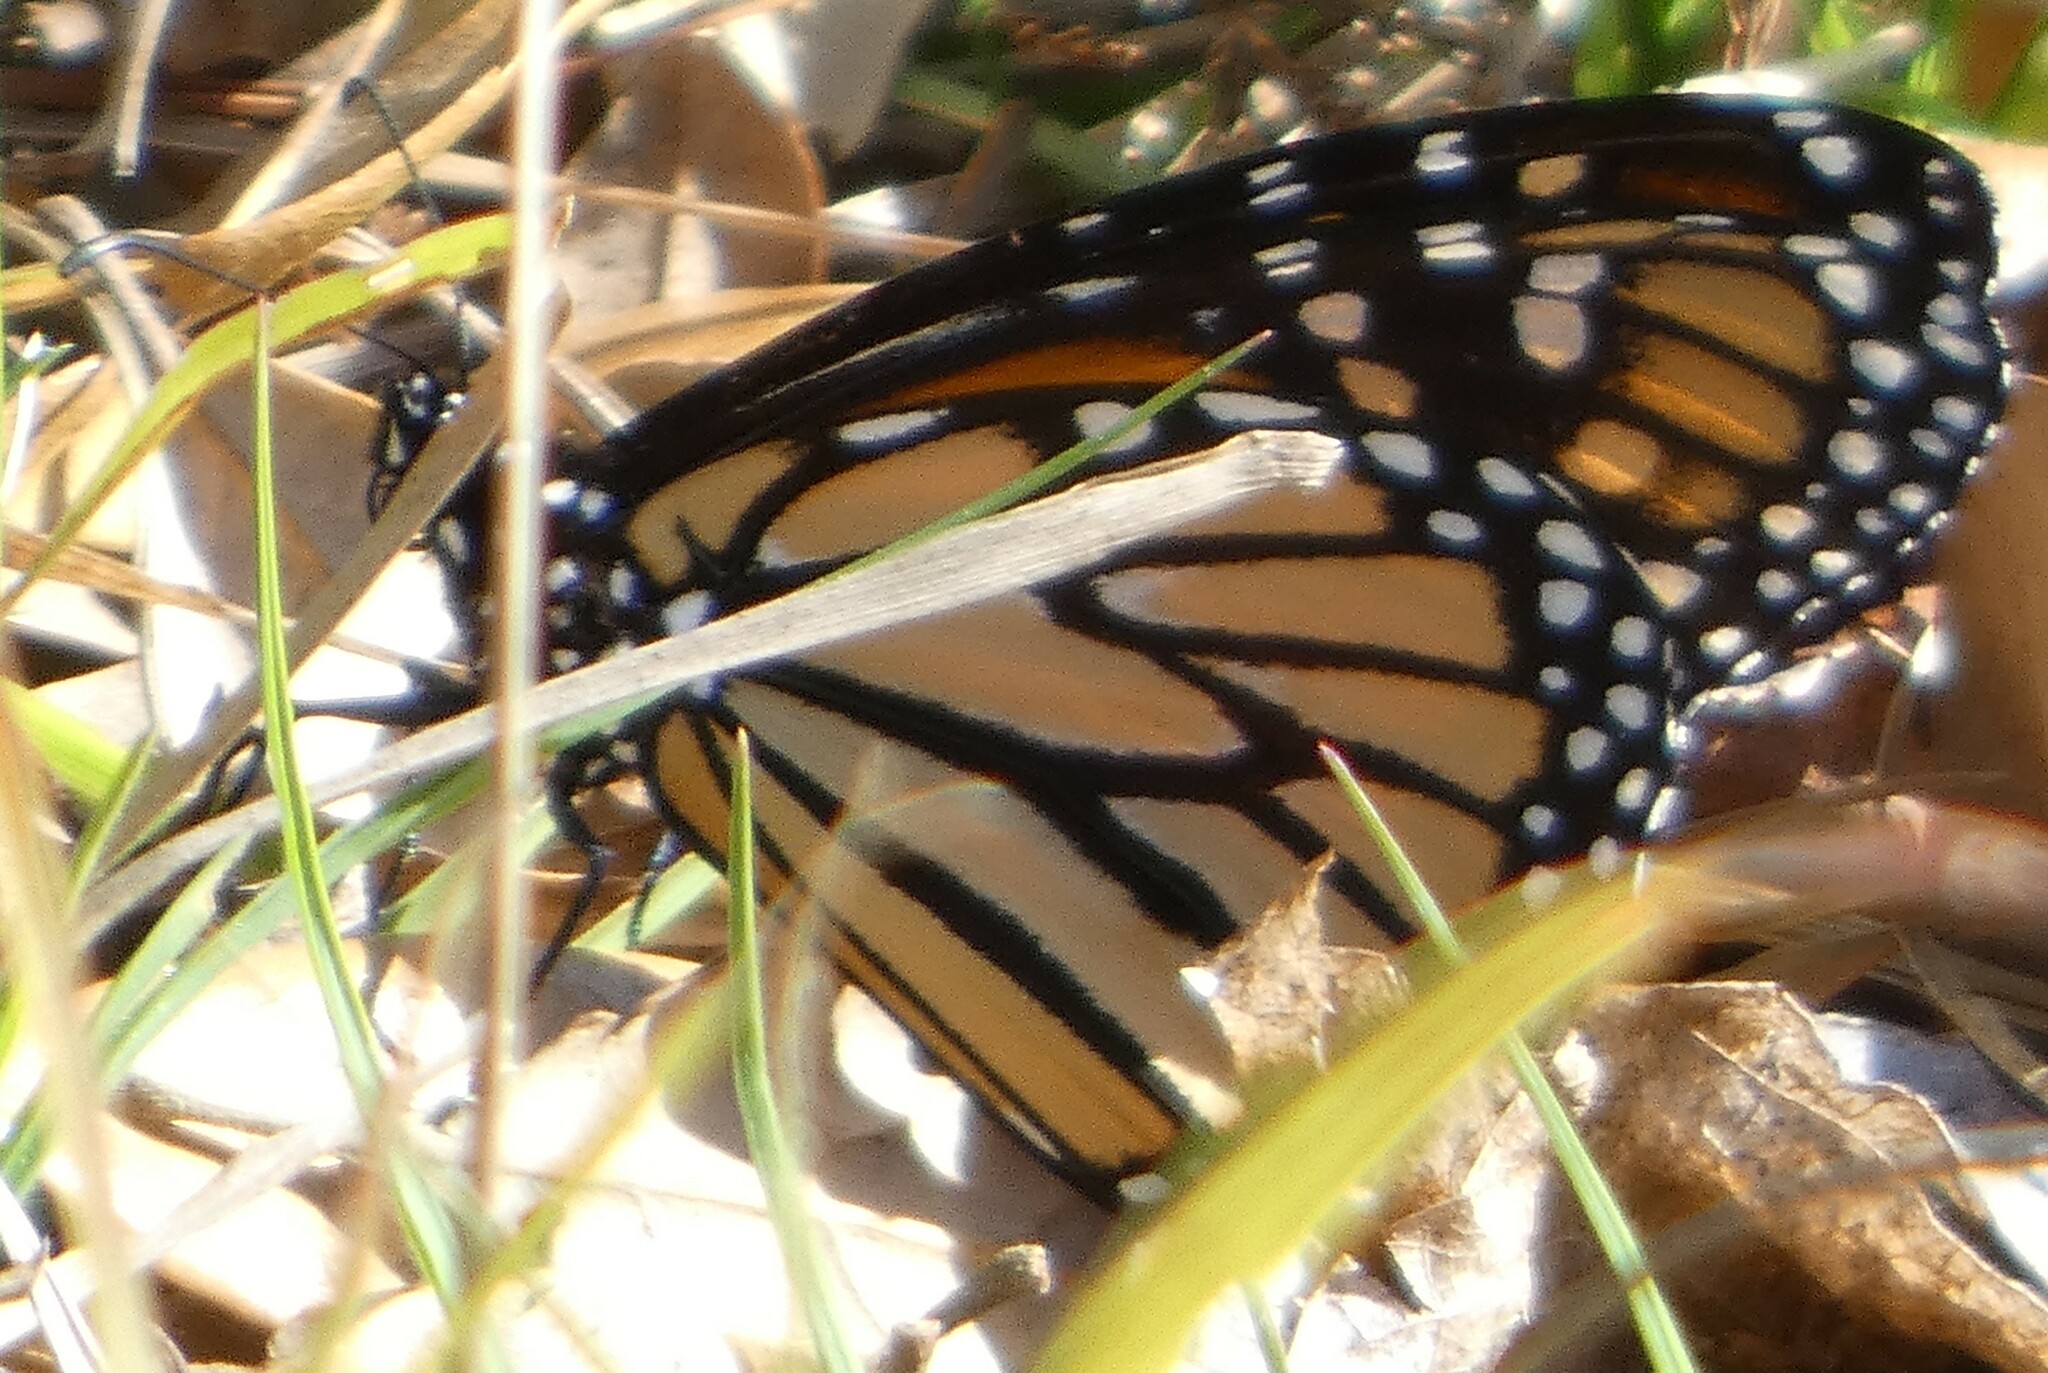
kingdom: Animalia
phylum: Arthropoda
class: Insecta
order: Lepidoptera
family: Nymphalidae
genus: Danaus
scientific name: Danaus plexippus
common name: Monarch
